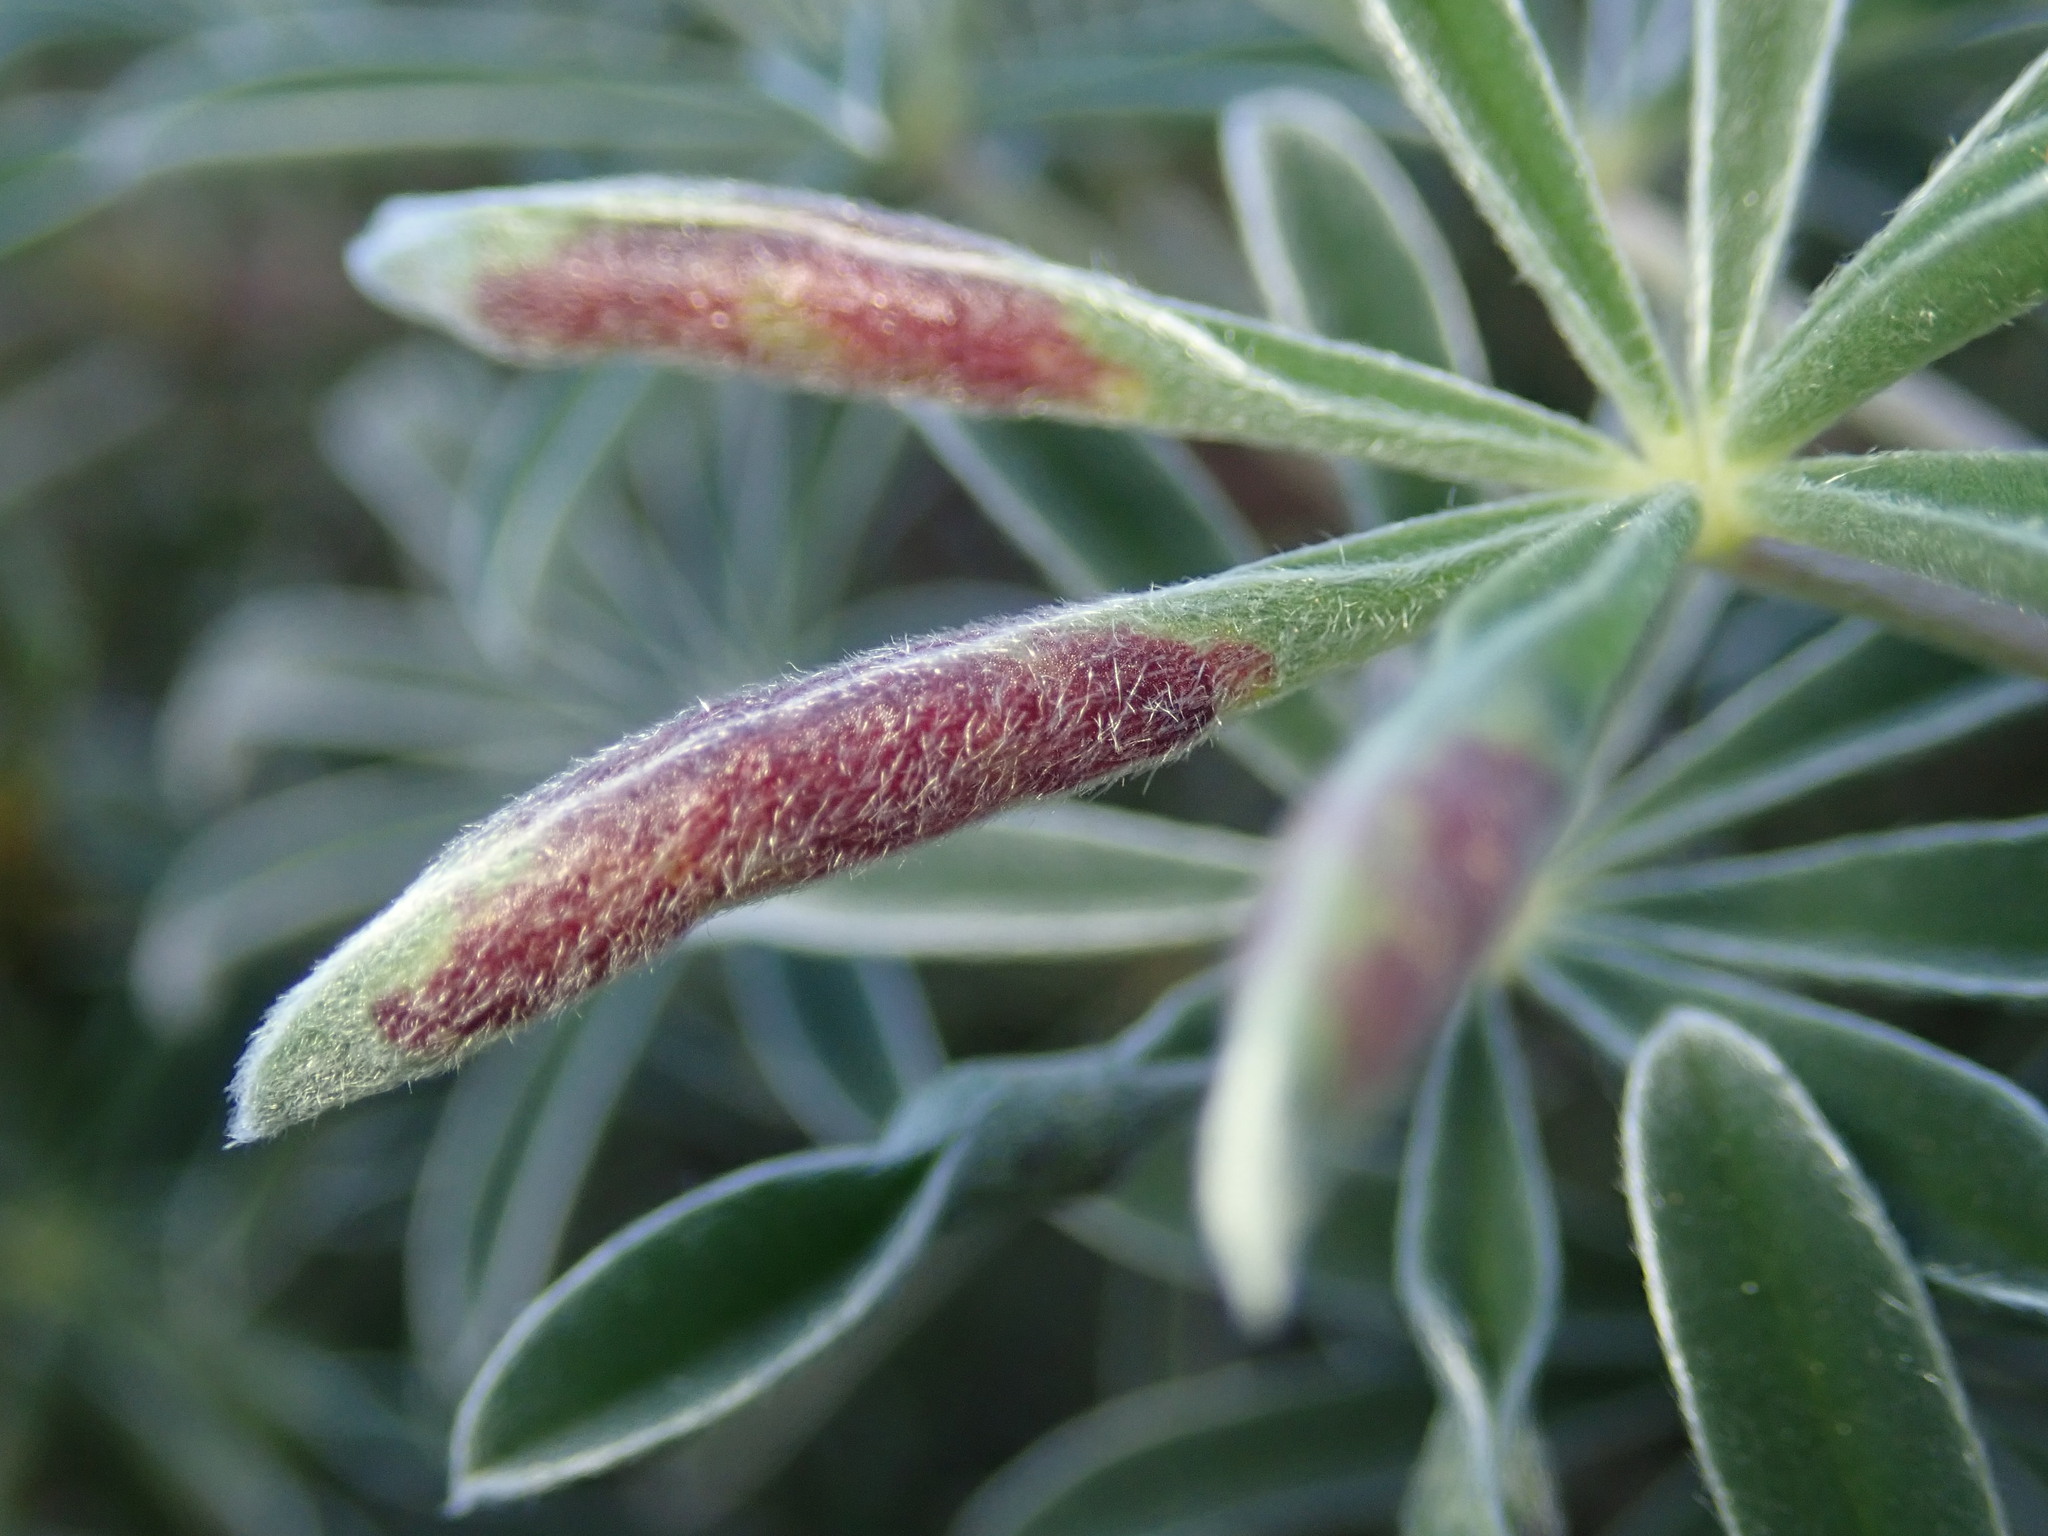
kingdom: Animalia
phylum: Arthropoda
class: Insecta
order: Diptera
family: Cecidomyiidae
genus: Dasineura
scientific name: Dasineura lupinorum
